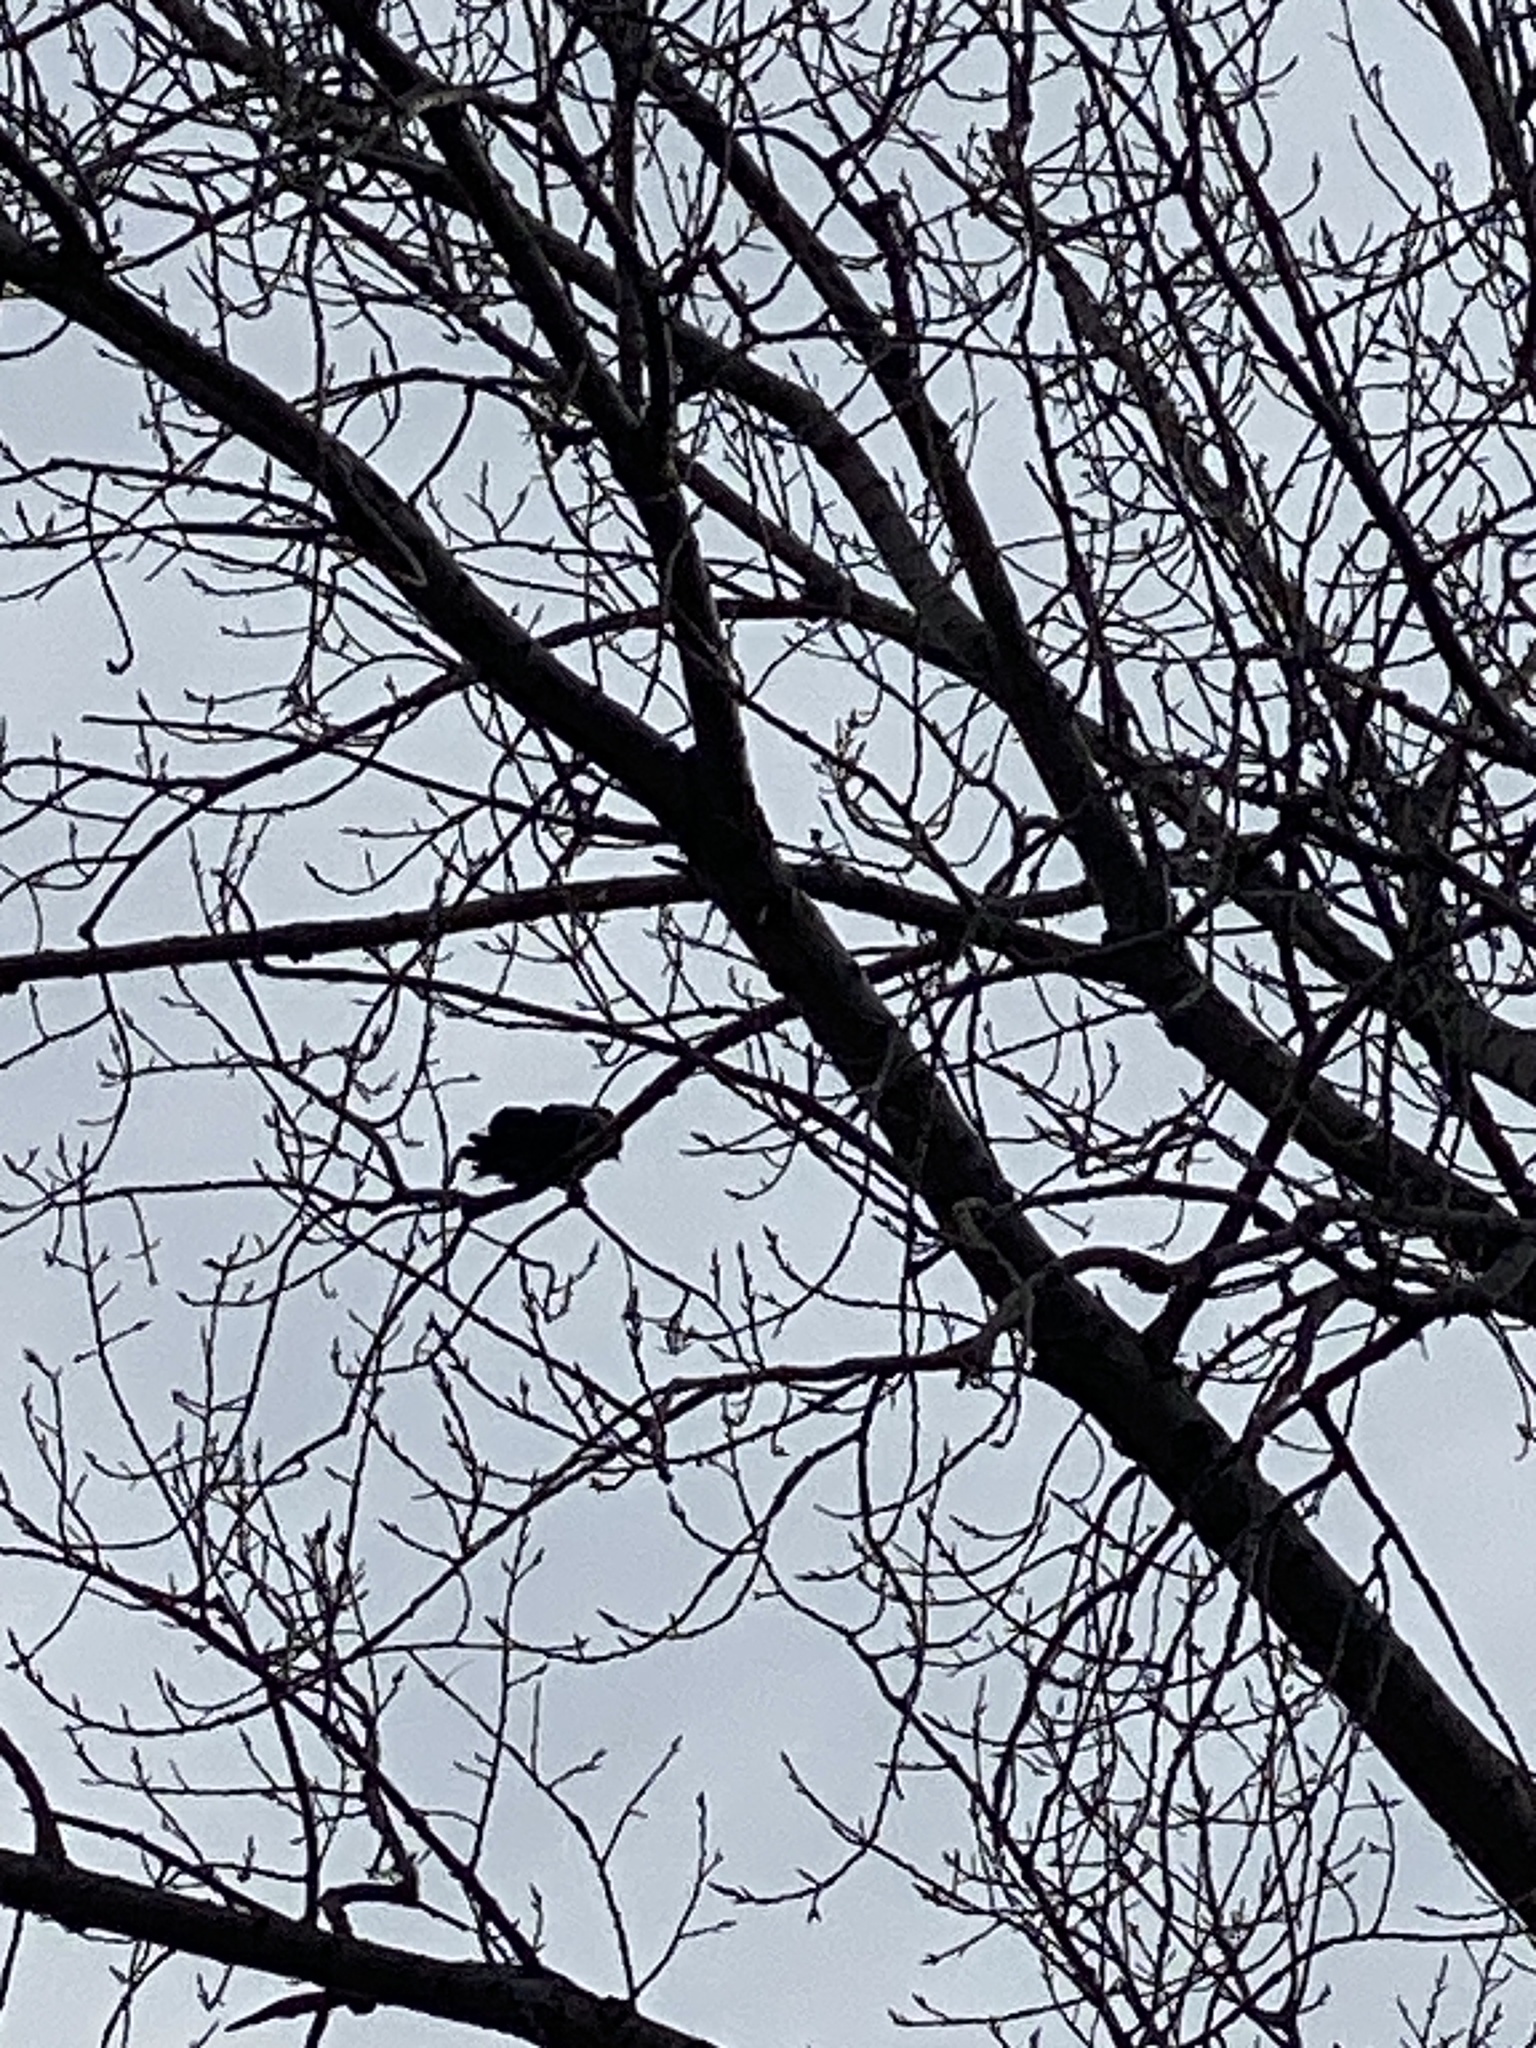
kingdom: Animalia
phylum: Chordata
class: Aves
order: Passeriformes
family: Corvidae
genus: Corvus
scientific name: Corvus ossifragus
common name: Fish crow
